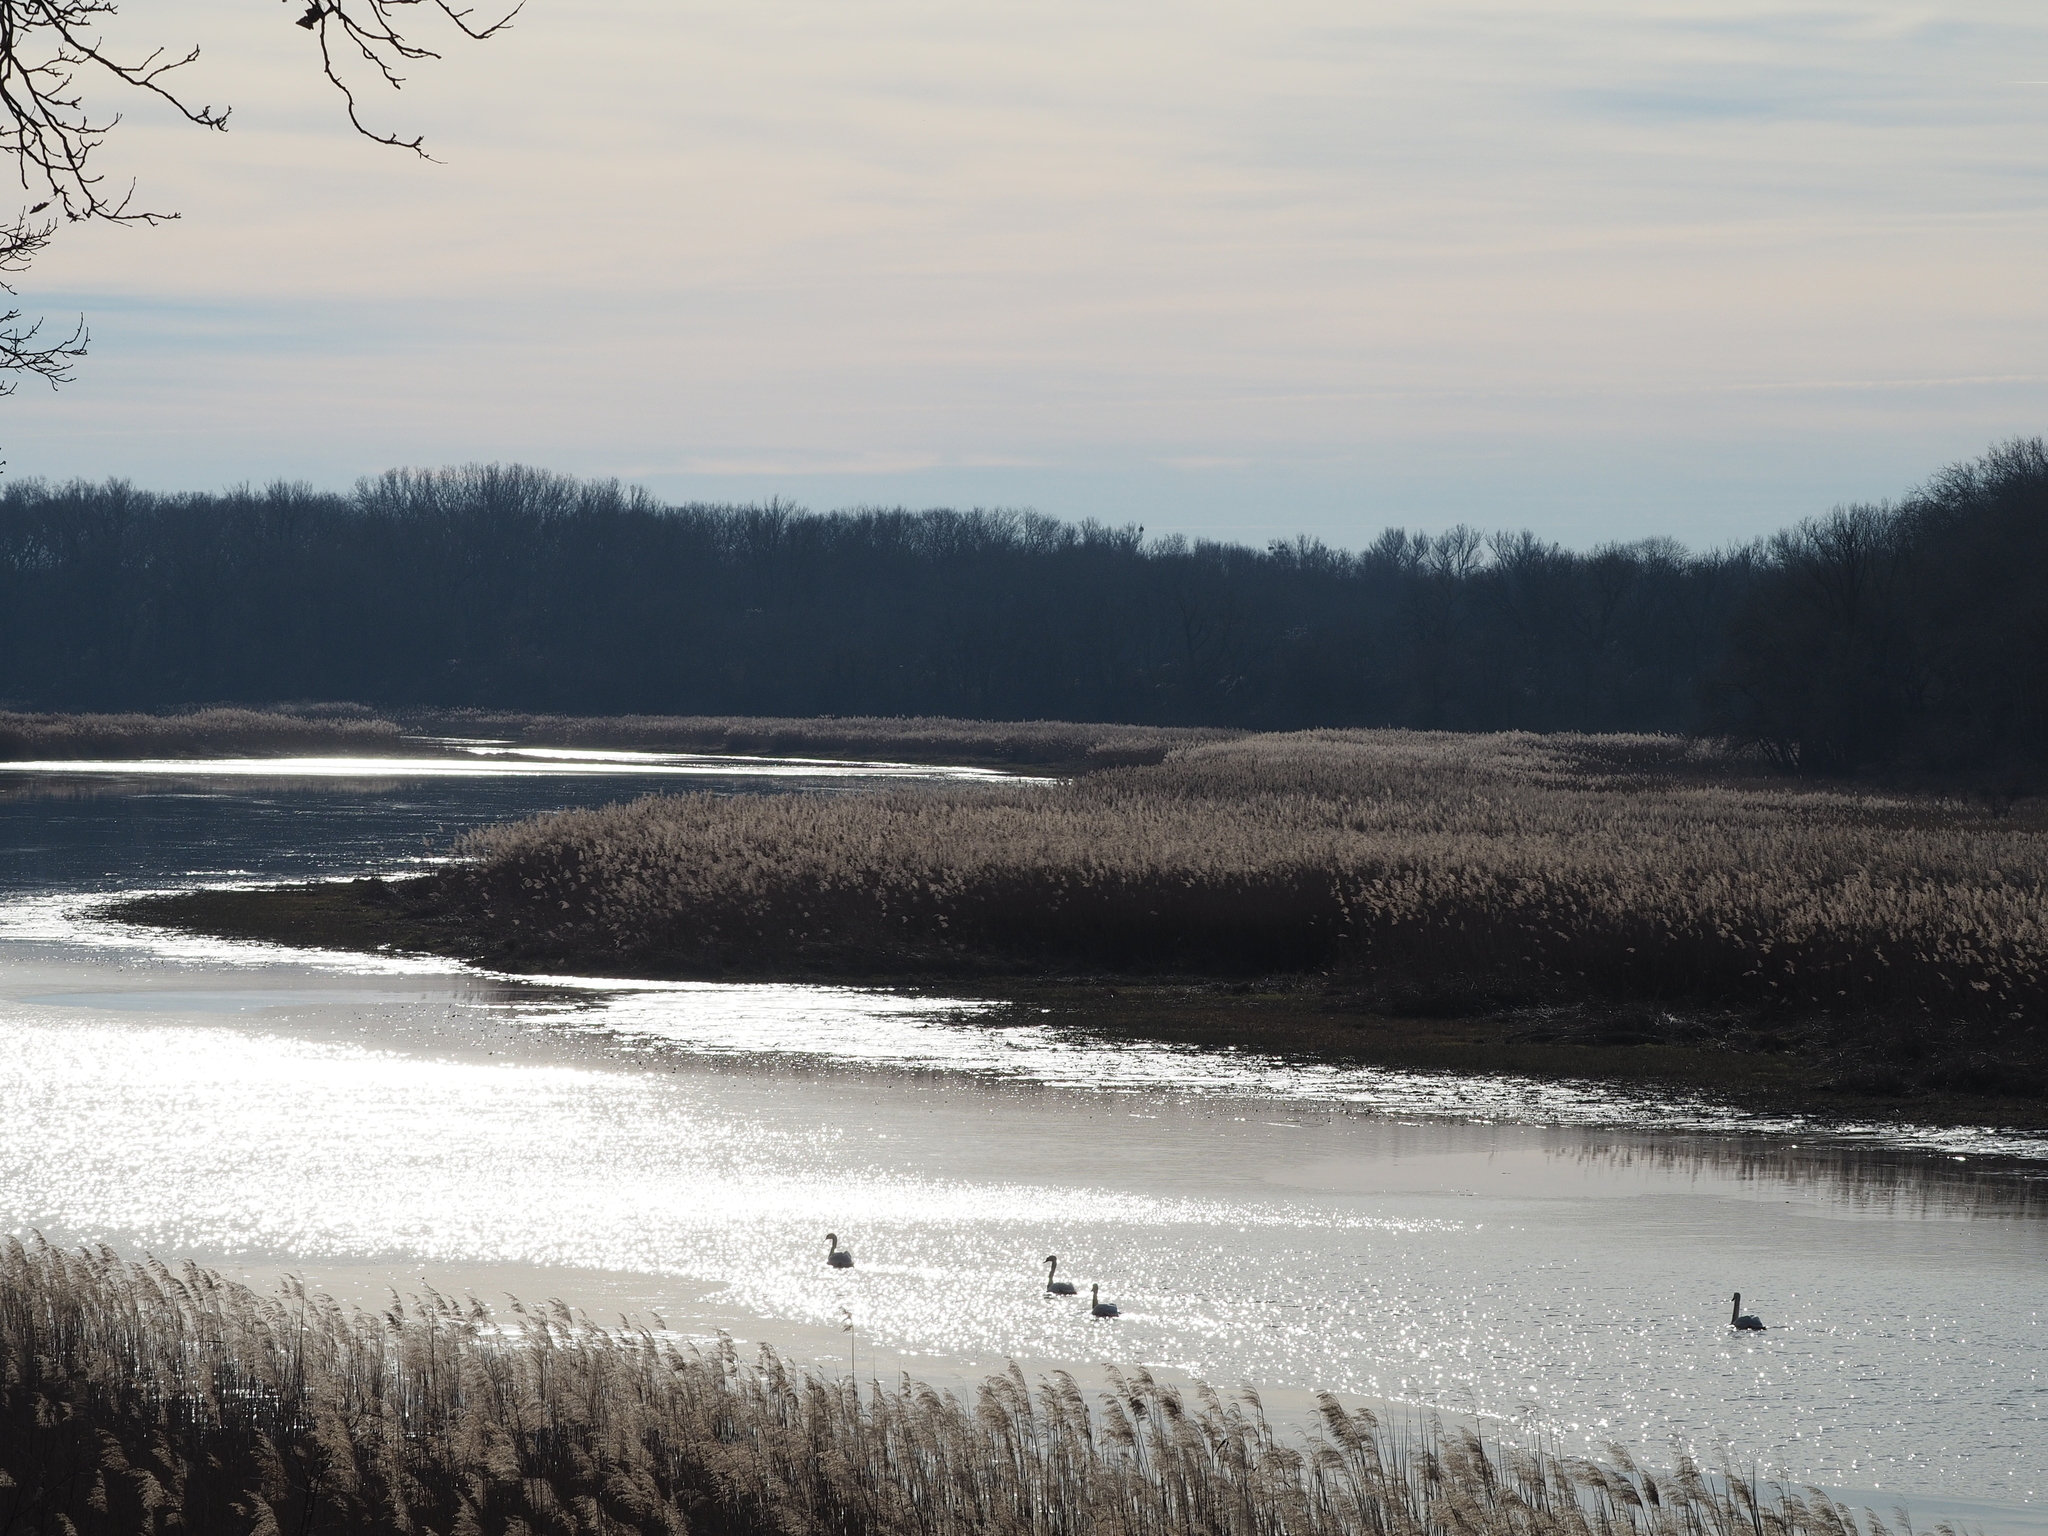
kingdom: Animalia
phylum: Chordata
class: Aves
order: Anseriformes
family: Anatidae
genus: Cygnus
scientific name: Cygnus olor
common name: Mute swan
